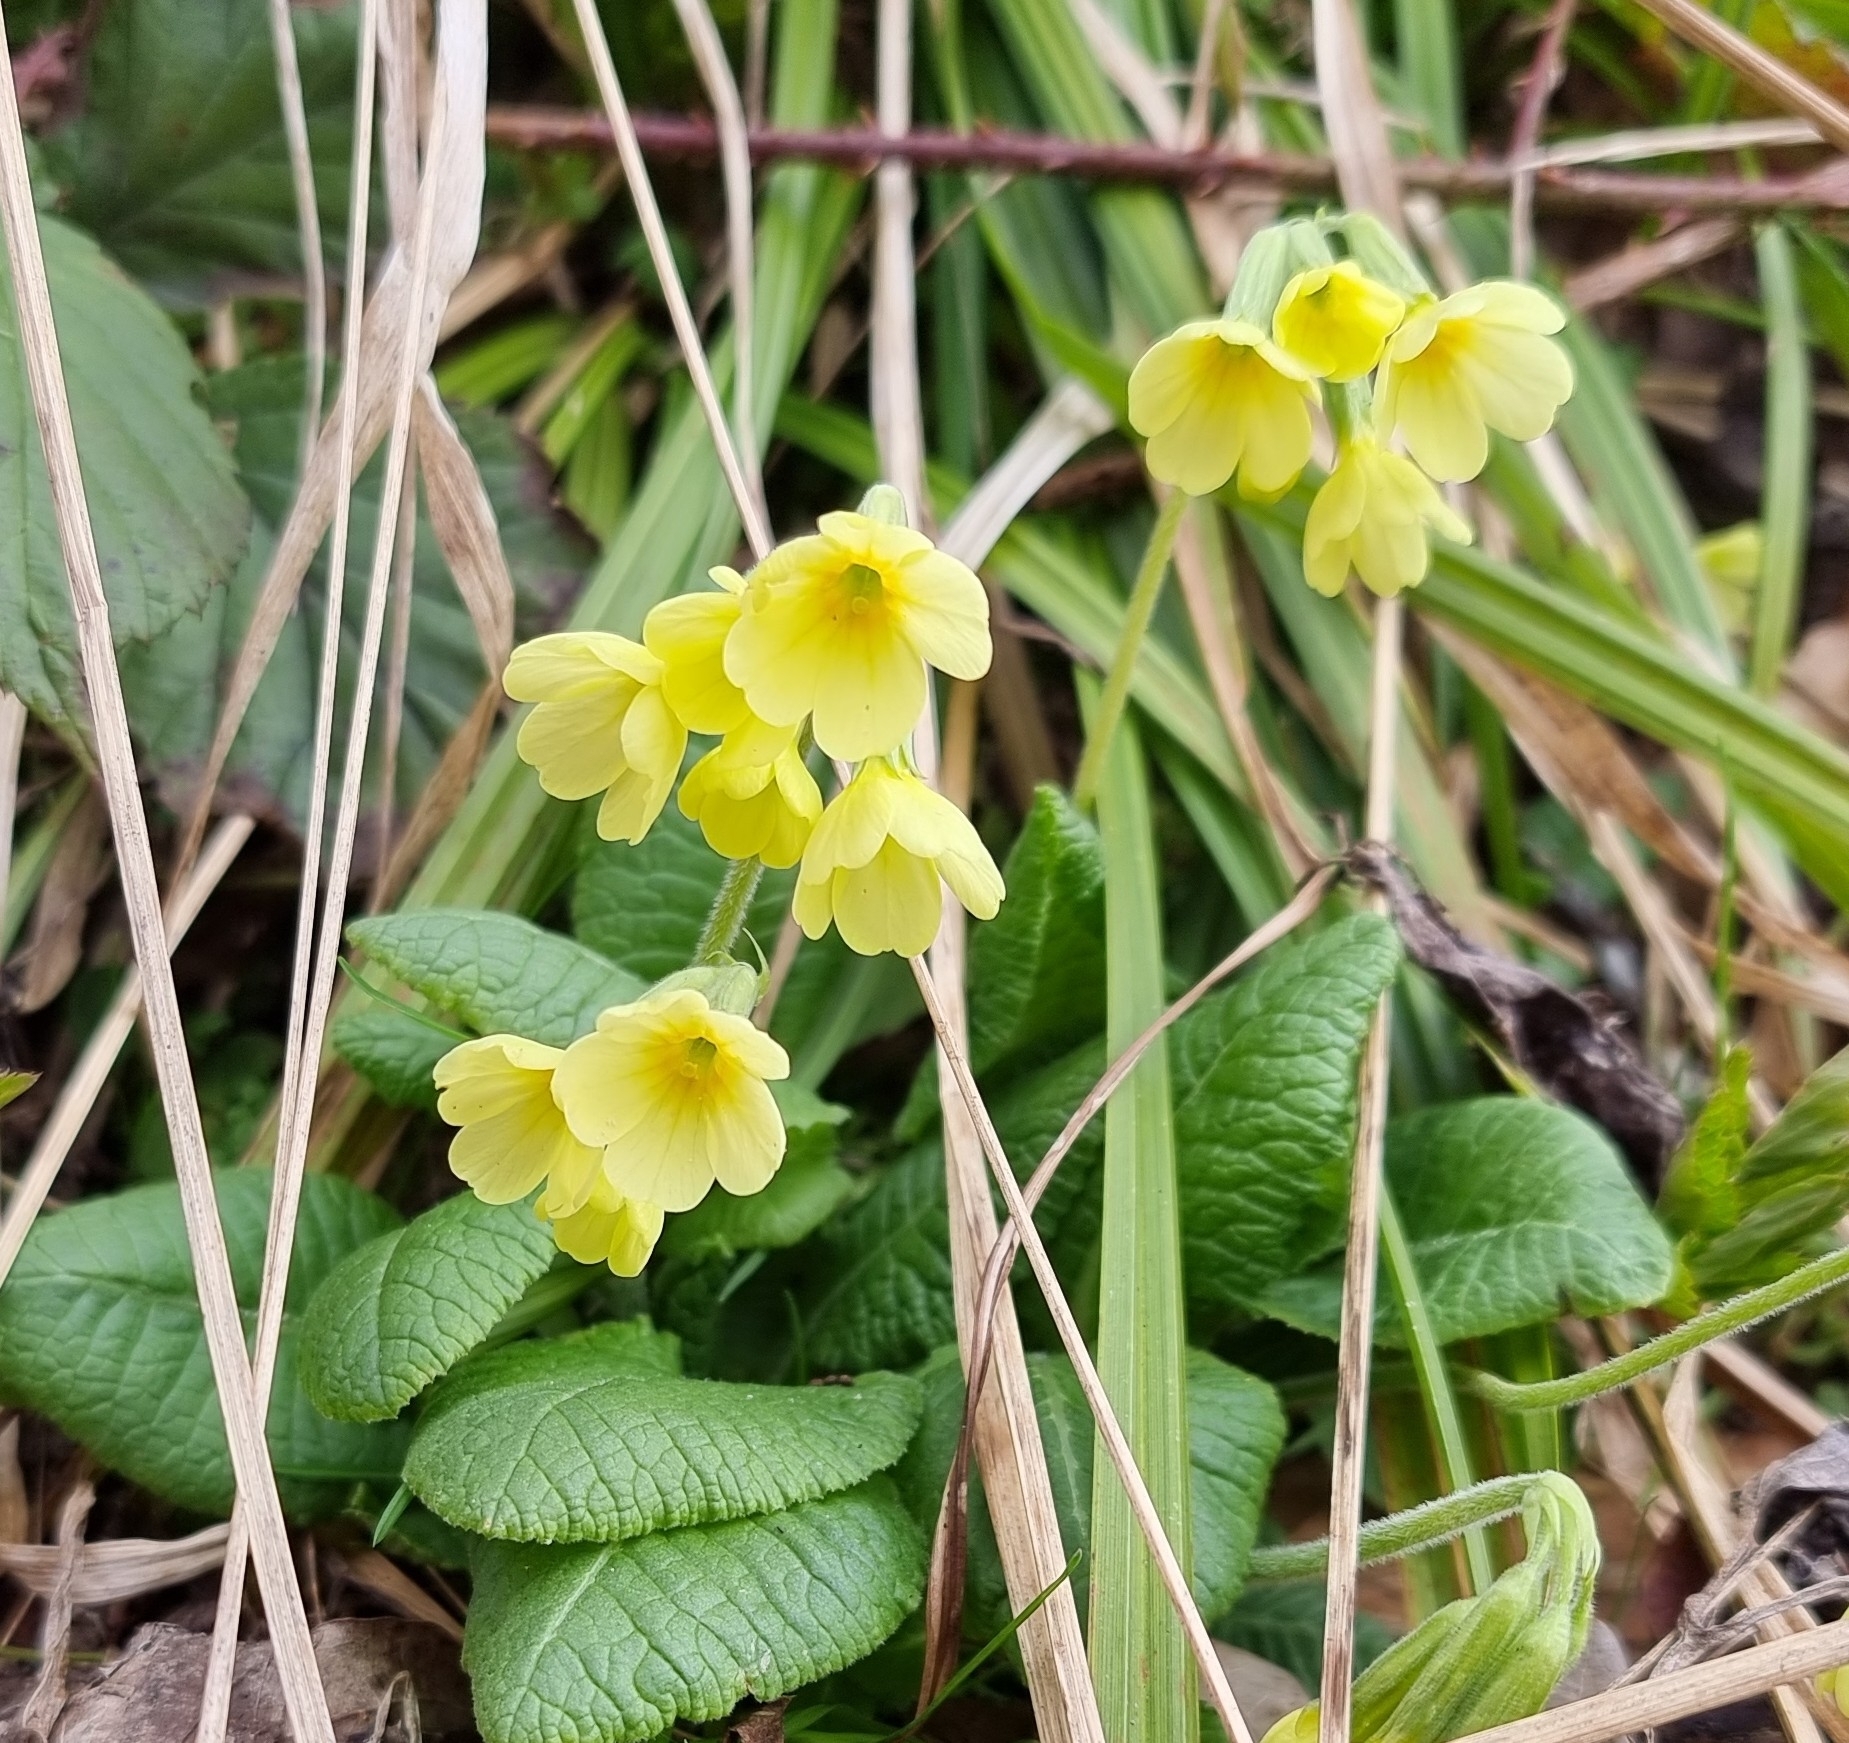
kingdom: Plantae
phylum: Tracheophyta
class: Magnoliopsida
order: Ericales
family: Primulaceae
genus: Primula
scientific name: Primula elatior
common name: Oxlip
